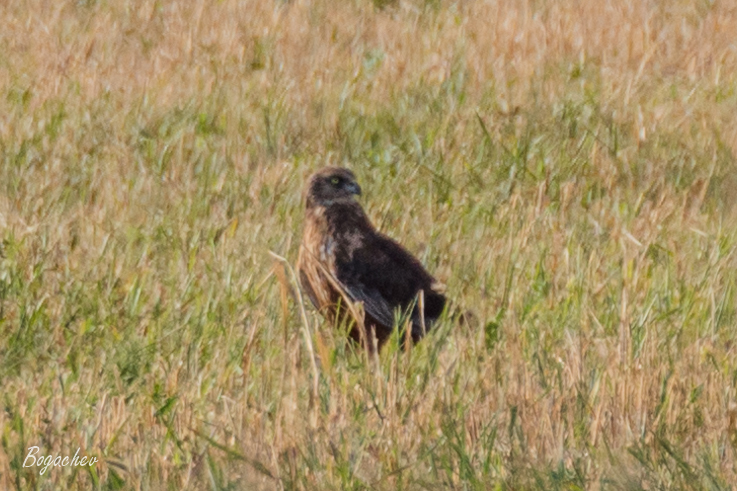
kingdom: Animalia
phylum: Chordata
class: Aves
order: Accipitriformes
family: Accipitridae
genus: Circus
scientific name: Circus aeruginosus
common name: Western marsh harrier
